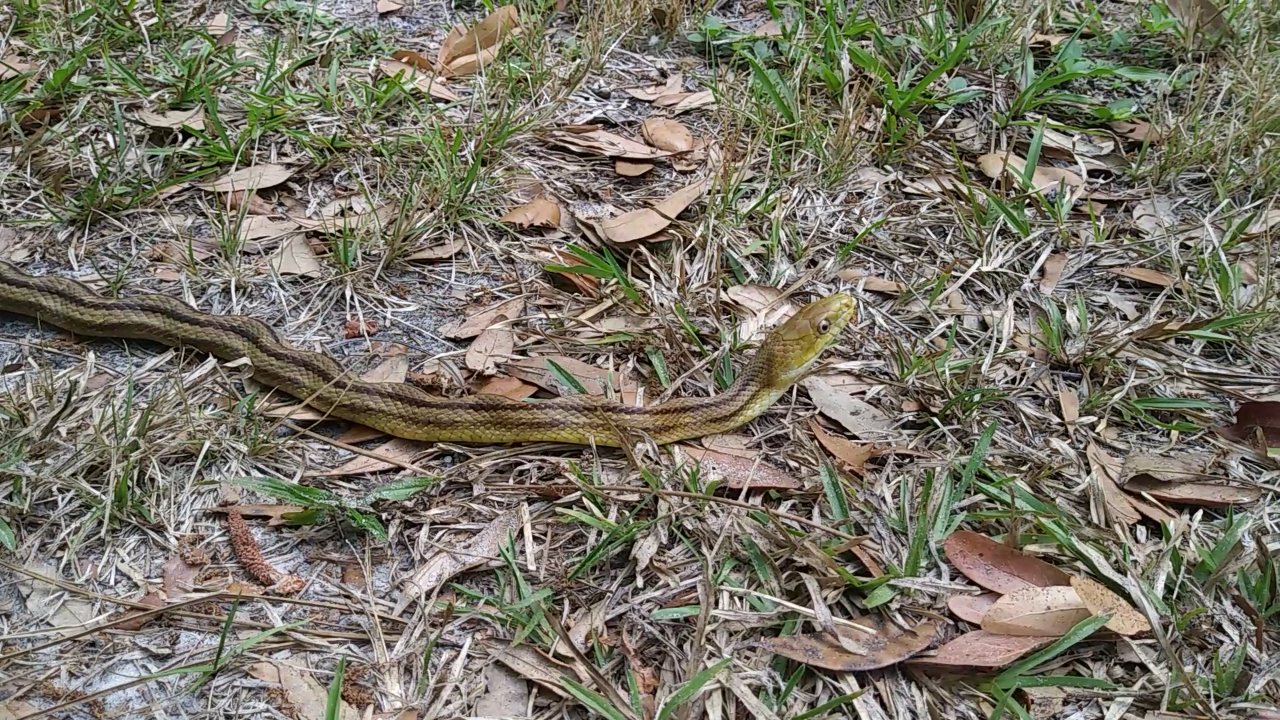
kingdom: Animalia
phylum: Chordata
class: Squamata
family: Colubridae
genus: Pantherophis
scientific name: Pantherophis alleghaniensis
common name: Eastern rat snake
